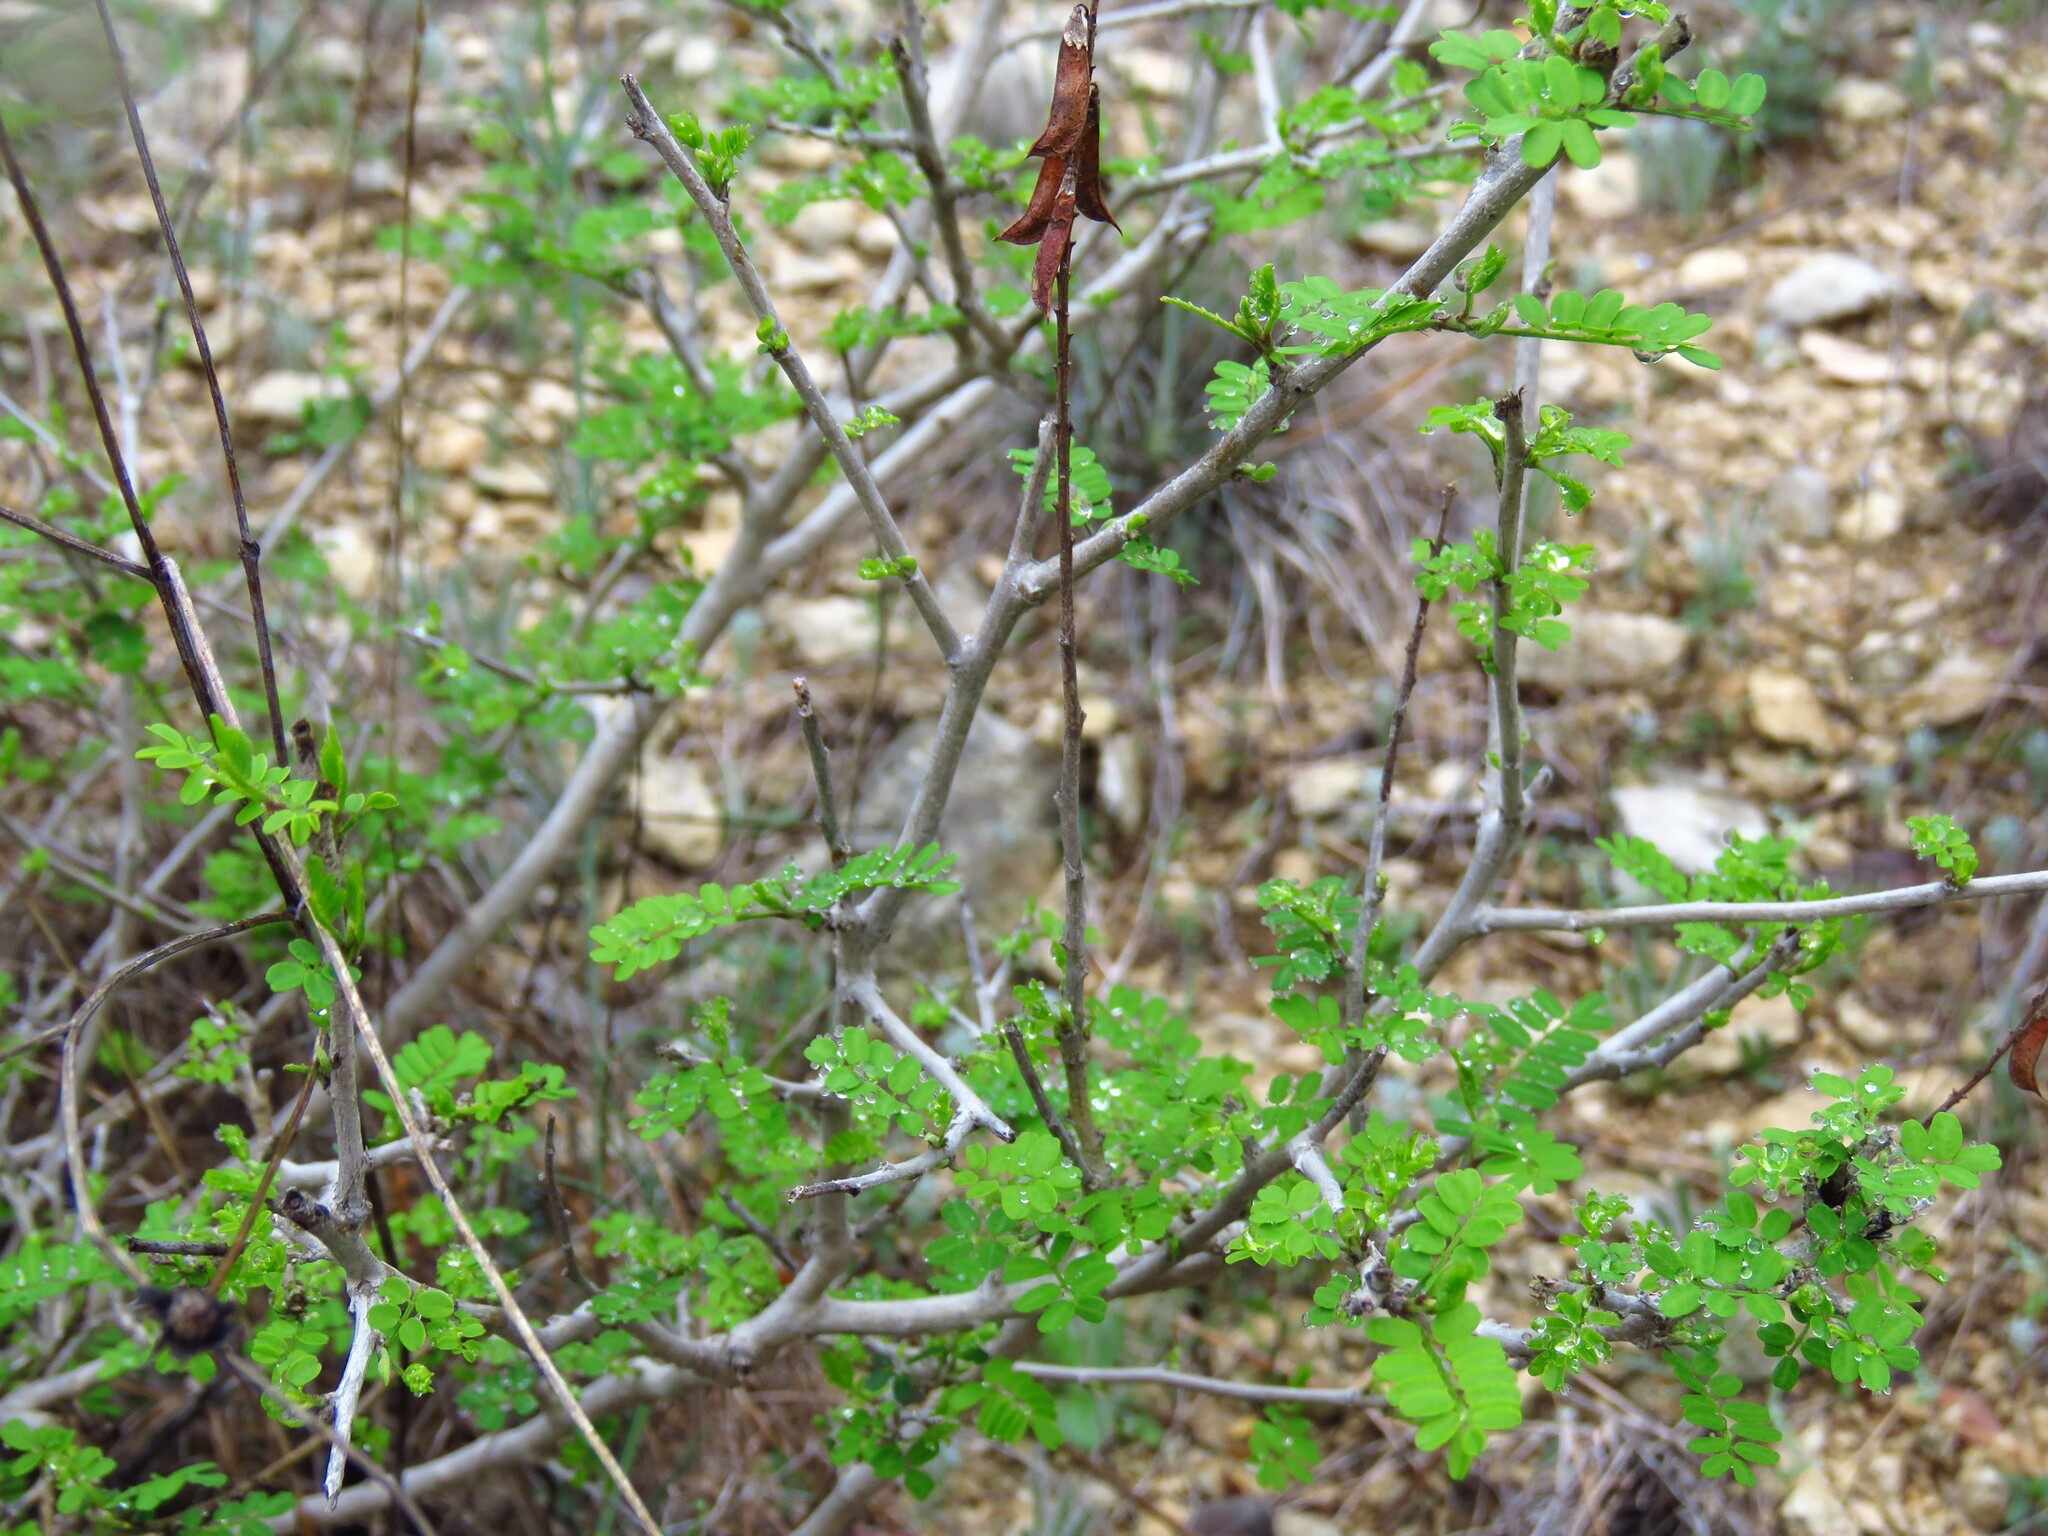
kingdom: Plantae
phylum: Tracheophyta
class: Magnoliopsida
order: Fabales
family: Fabaceae
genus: Eysenhardtia
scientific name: Eysenhardtia texana
